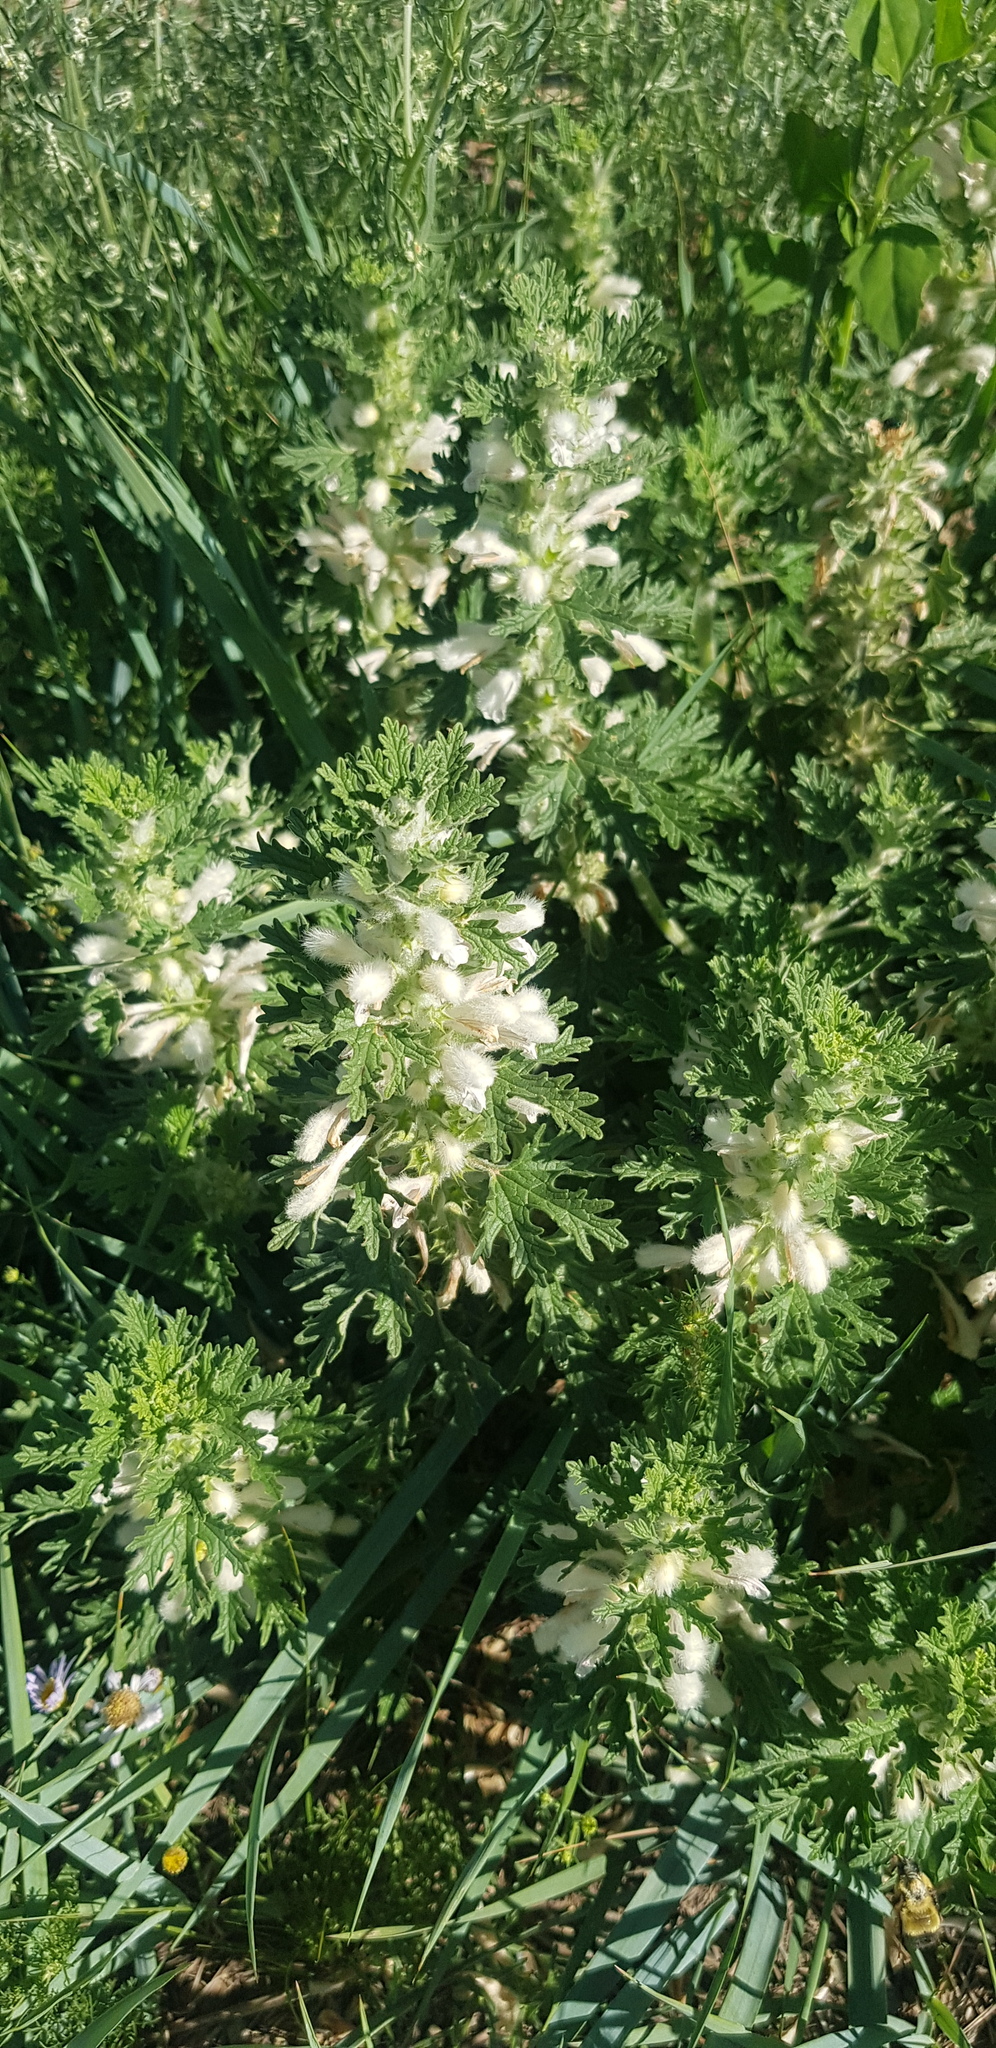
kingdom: Plantae
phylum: Tracheophyta
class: Magnoliopsida
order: Lamiales
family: Lamiaceae
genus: Panzerina
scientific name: Panzerina lanata
